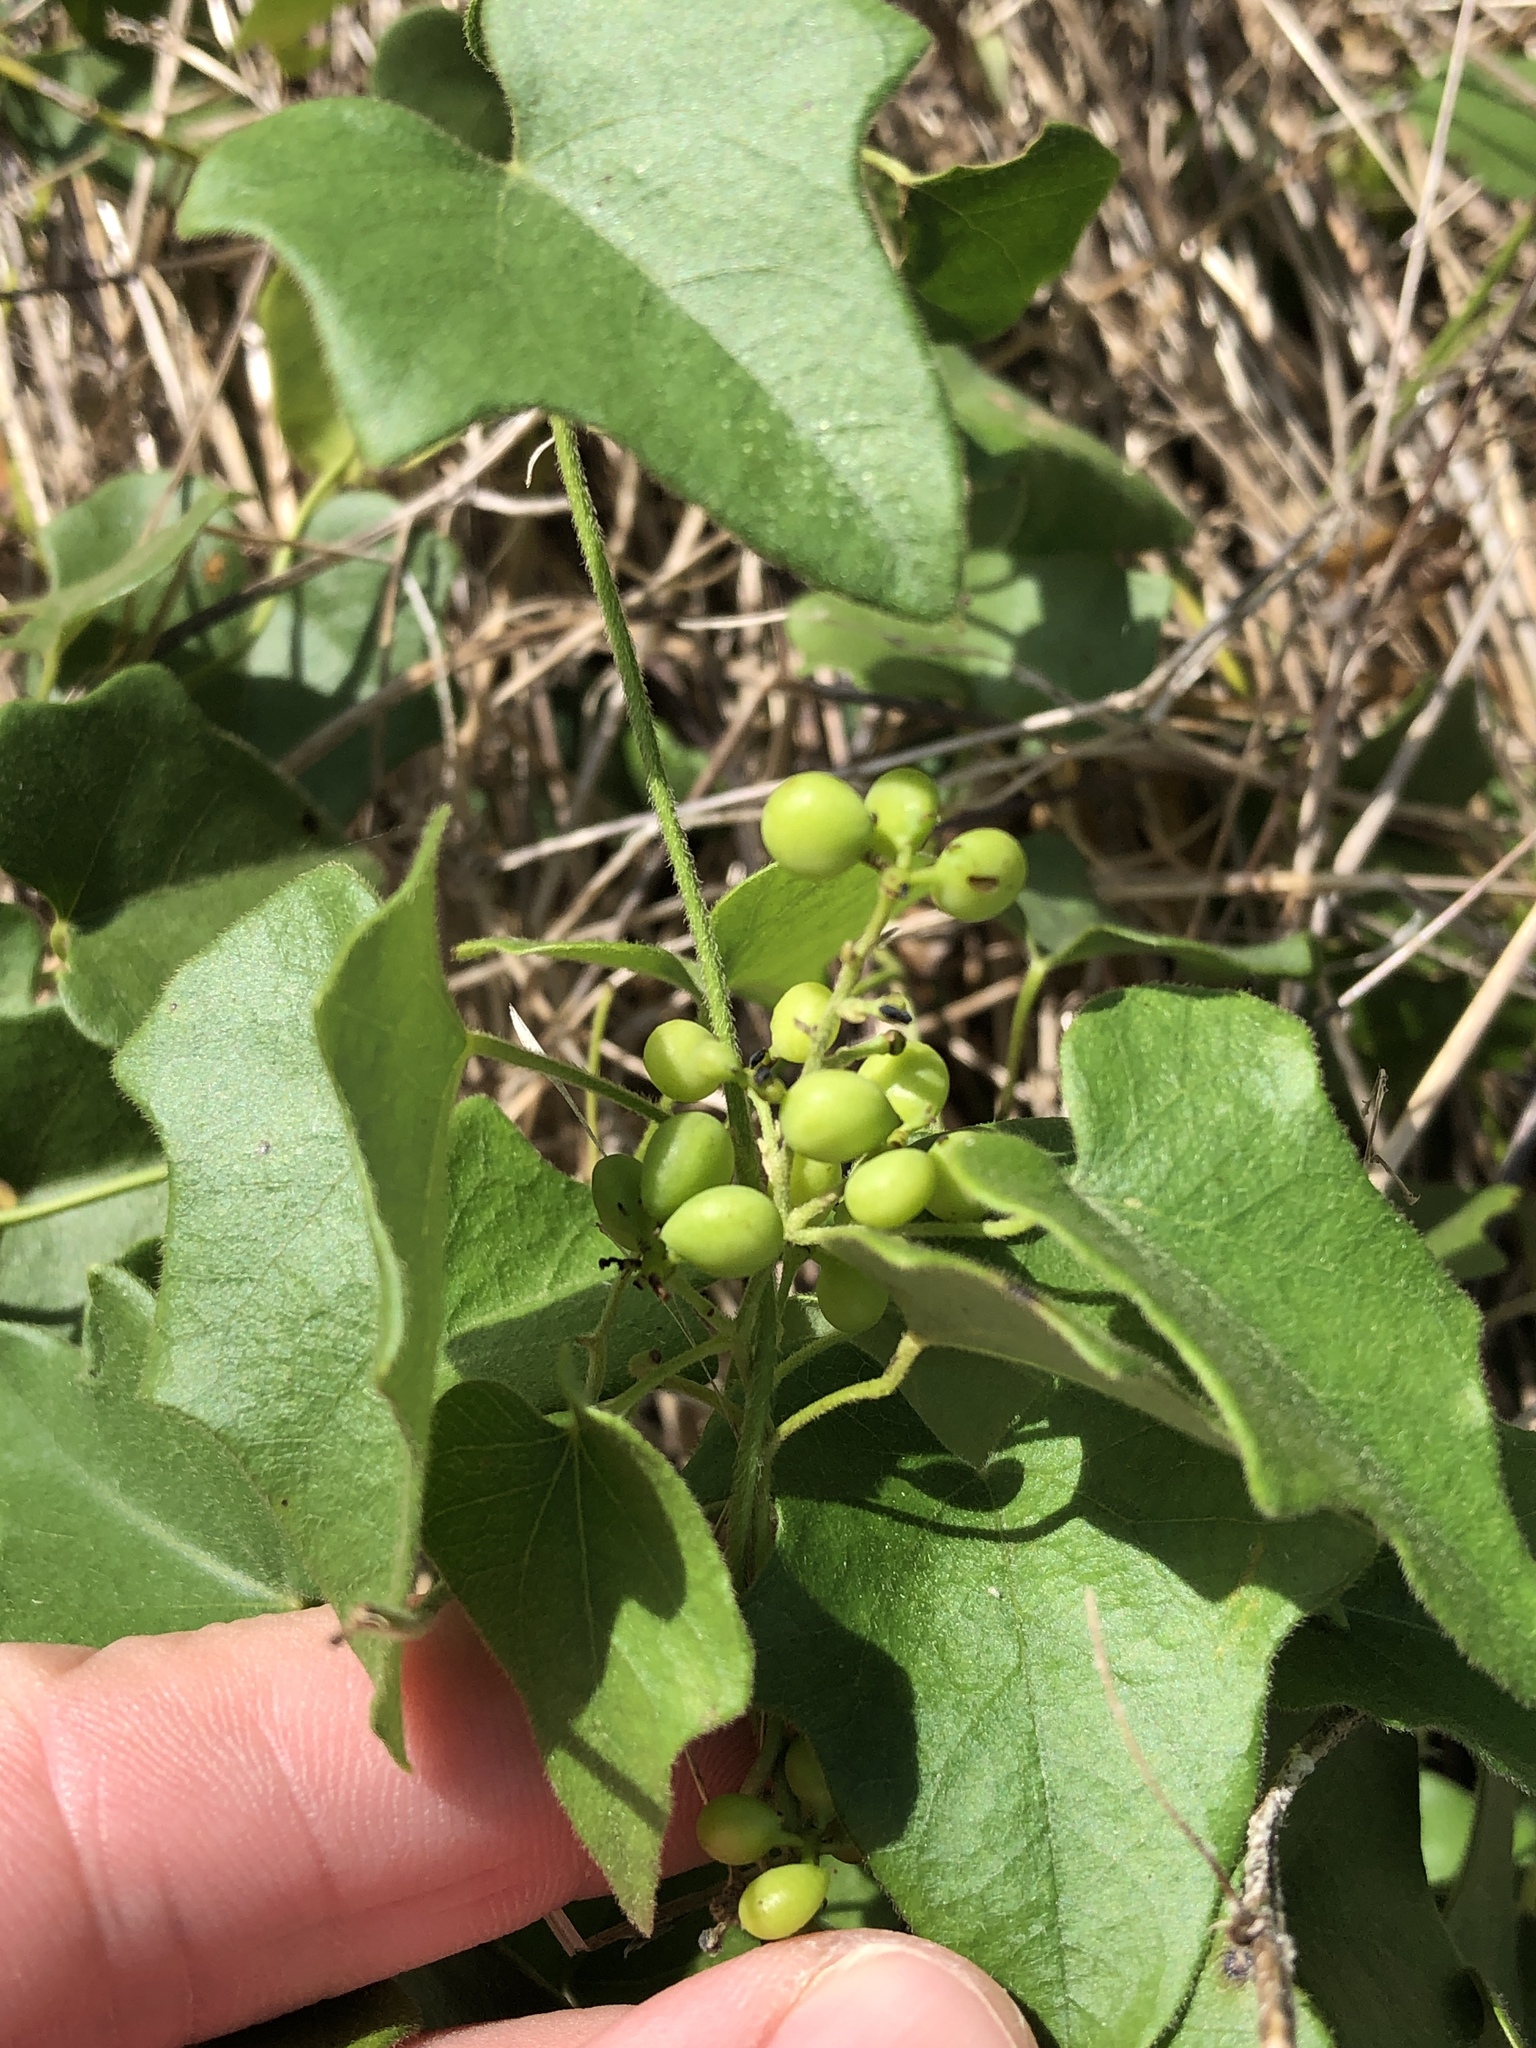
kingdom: Plantae
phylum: Tracheophyta
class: Magnoliopsida
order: Ranunculales
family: Menispermaceae
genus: Cocculus
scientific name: Cocculus carolinus
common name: Carolina moonseed
